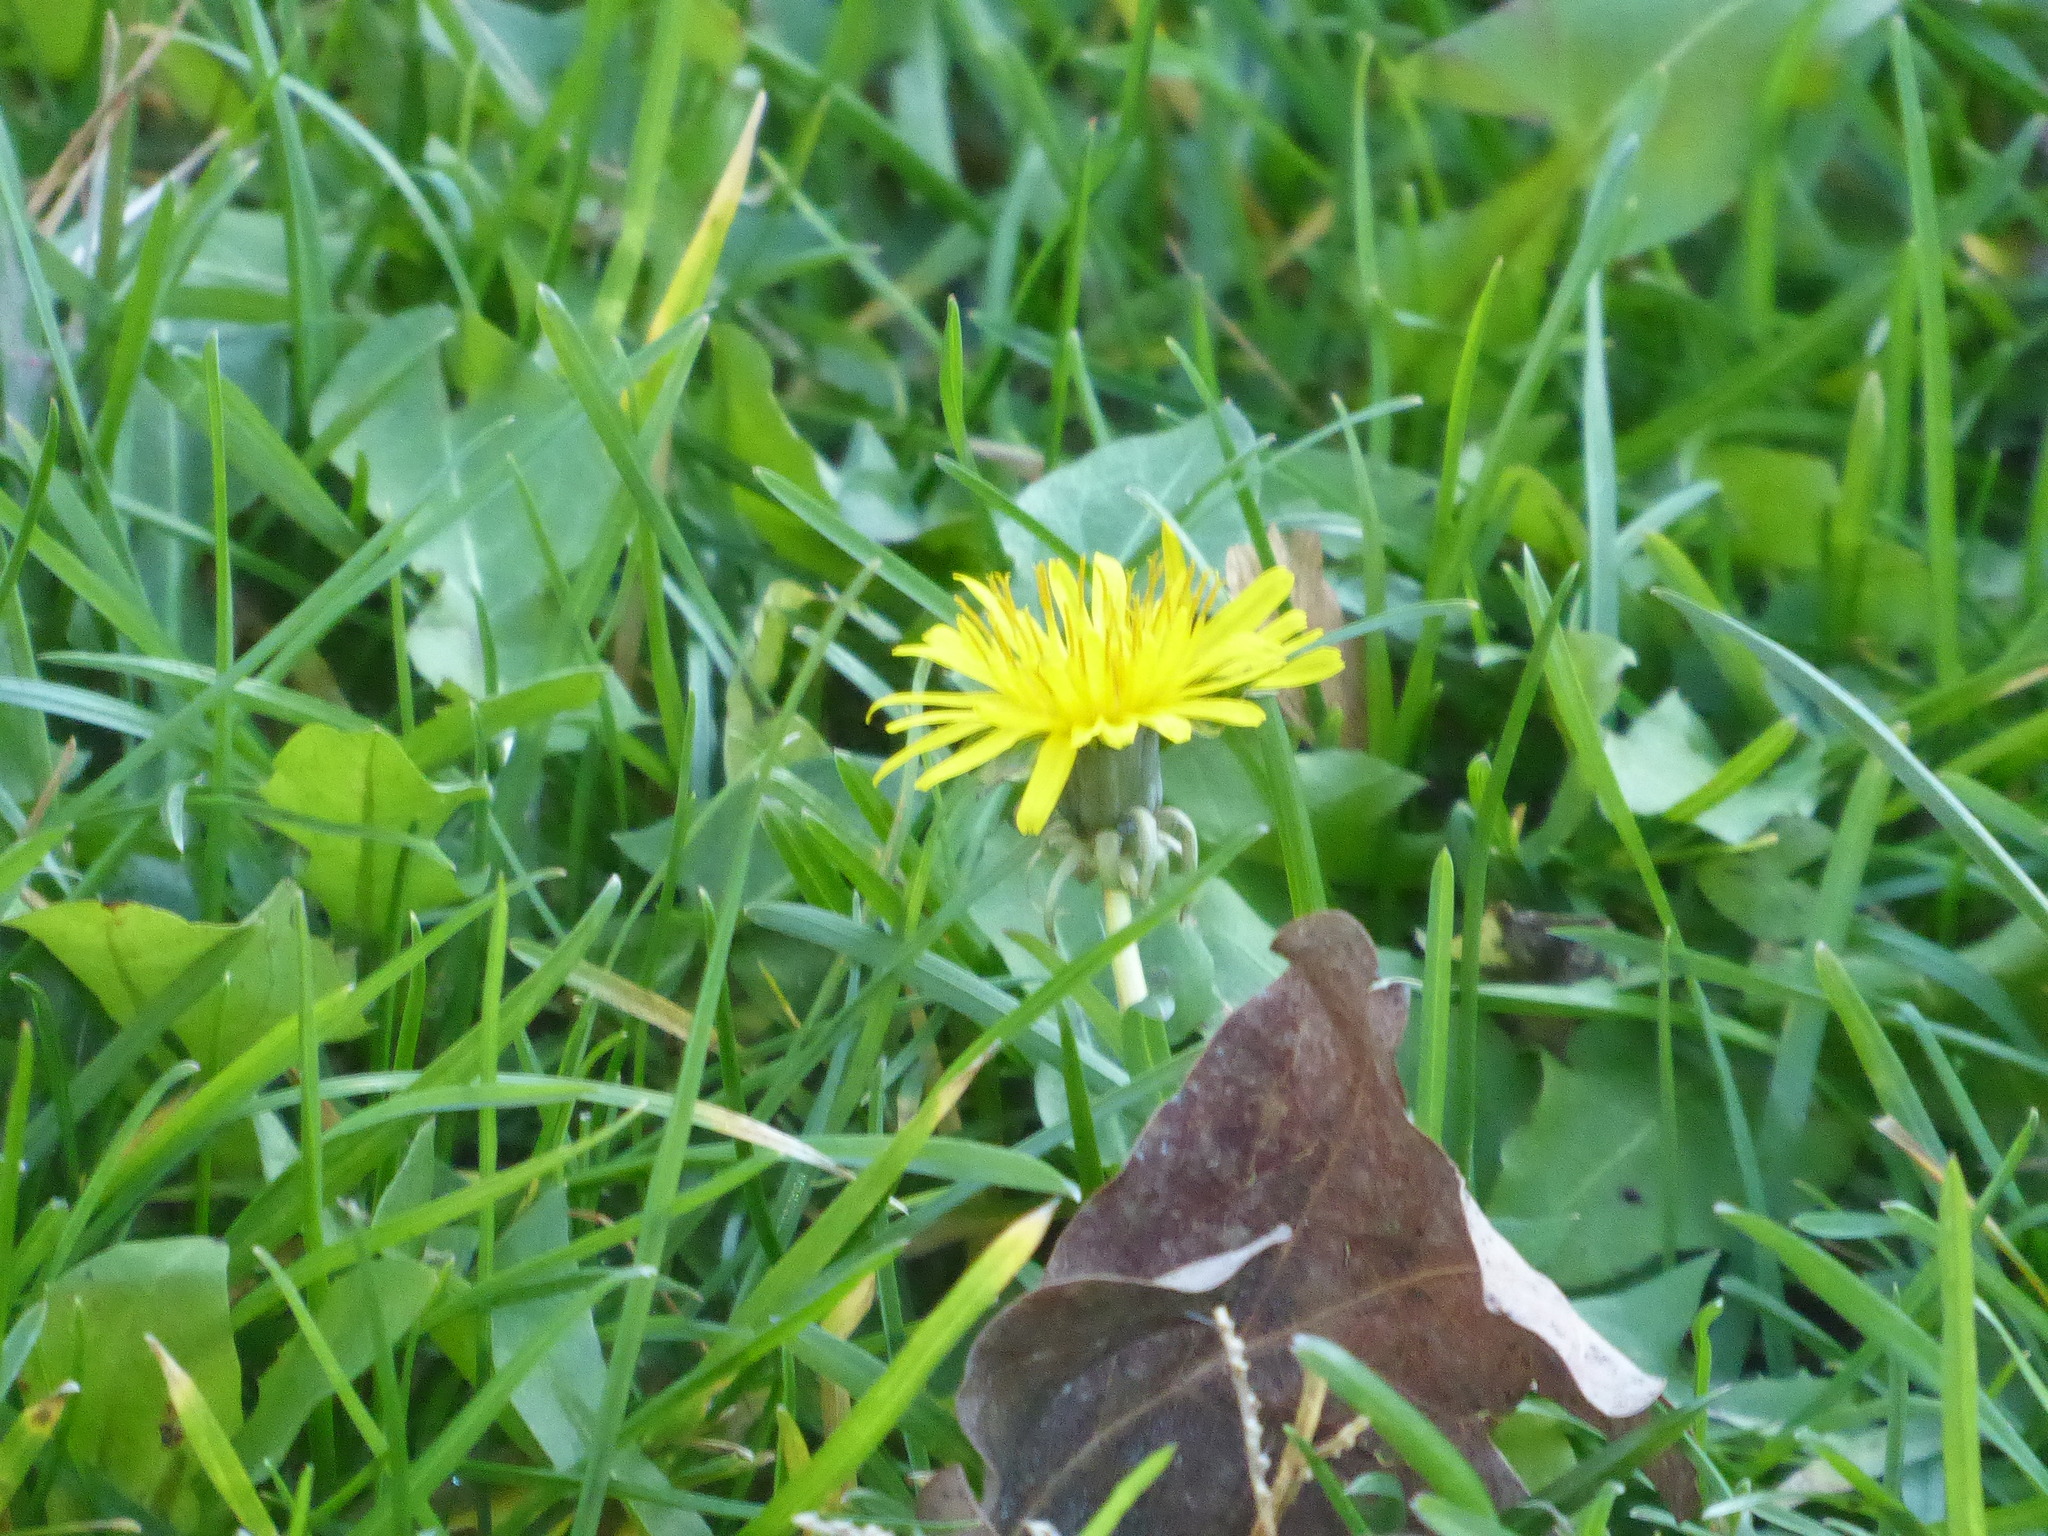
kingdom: Plantae
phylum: Tracheophyta
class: Magnoliopsida
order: Asterales
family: Asteraceae
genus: Taraxacum
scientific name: Taraxacum
